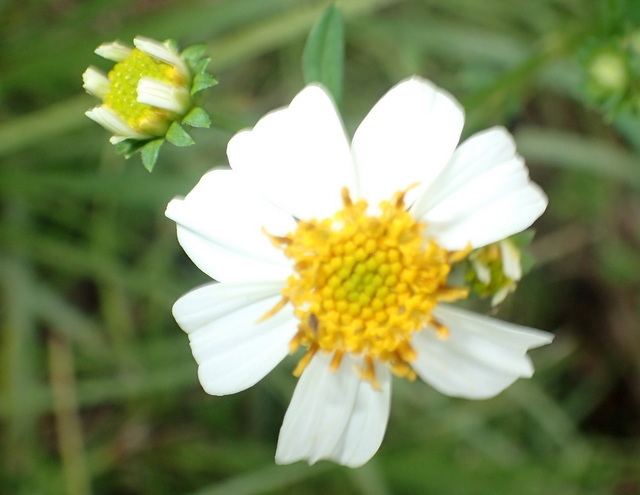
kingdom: Plantae
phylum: Tracheophyta
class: Magnoliopsida
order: Asterales
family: Asteraceae
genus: Bidens
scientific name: Bidens alba
